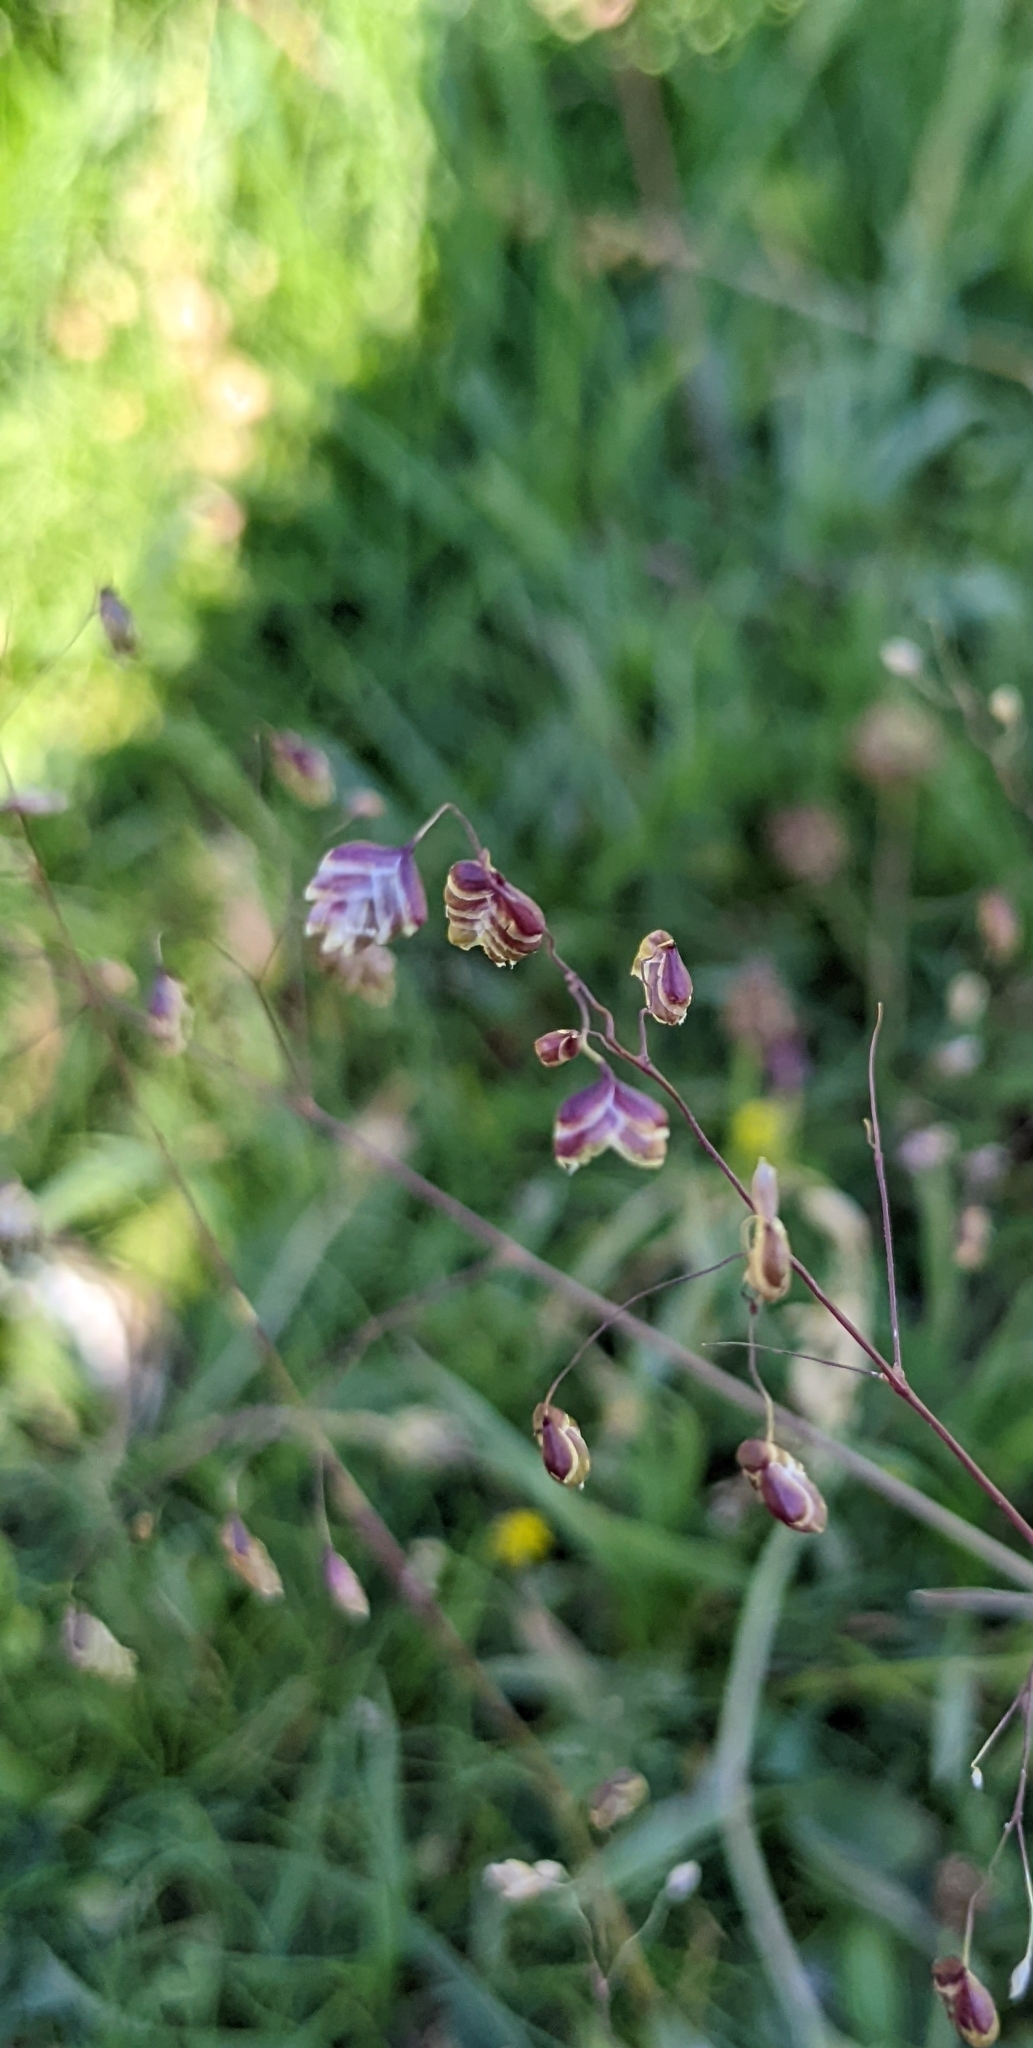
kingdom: Plantae
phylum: Tracheophyta
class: Liliopsida
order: Poales
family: Poaceae
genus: Briza
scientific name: Briza media
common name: Quaking grass
